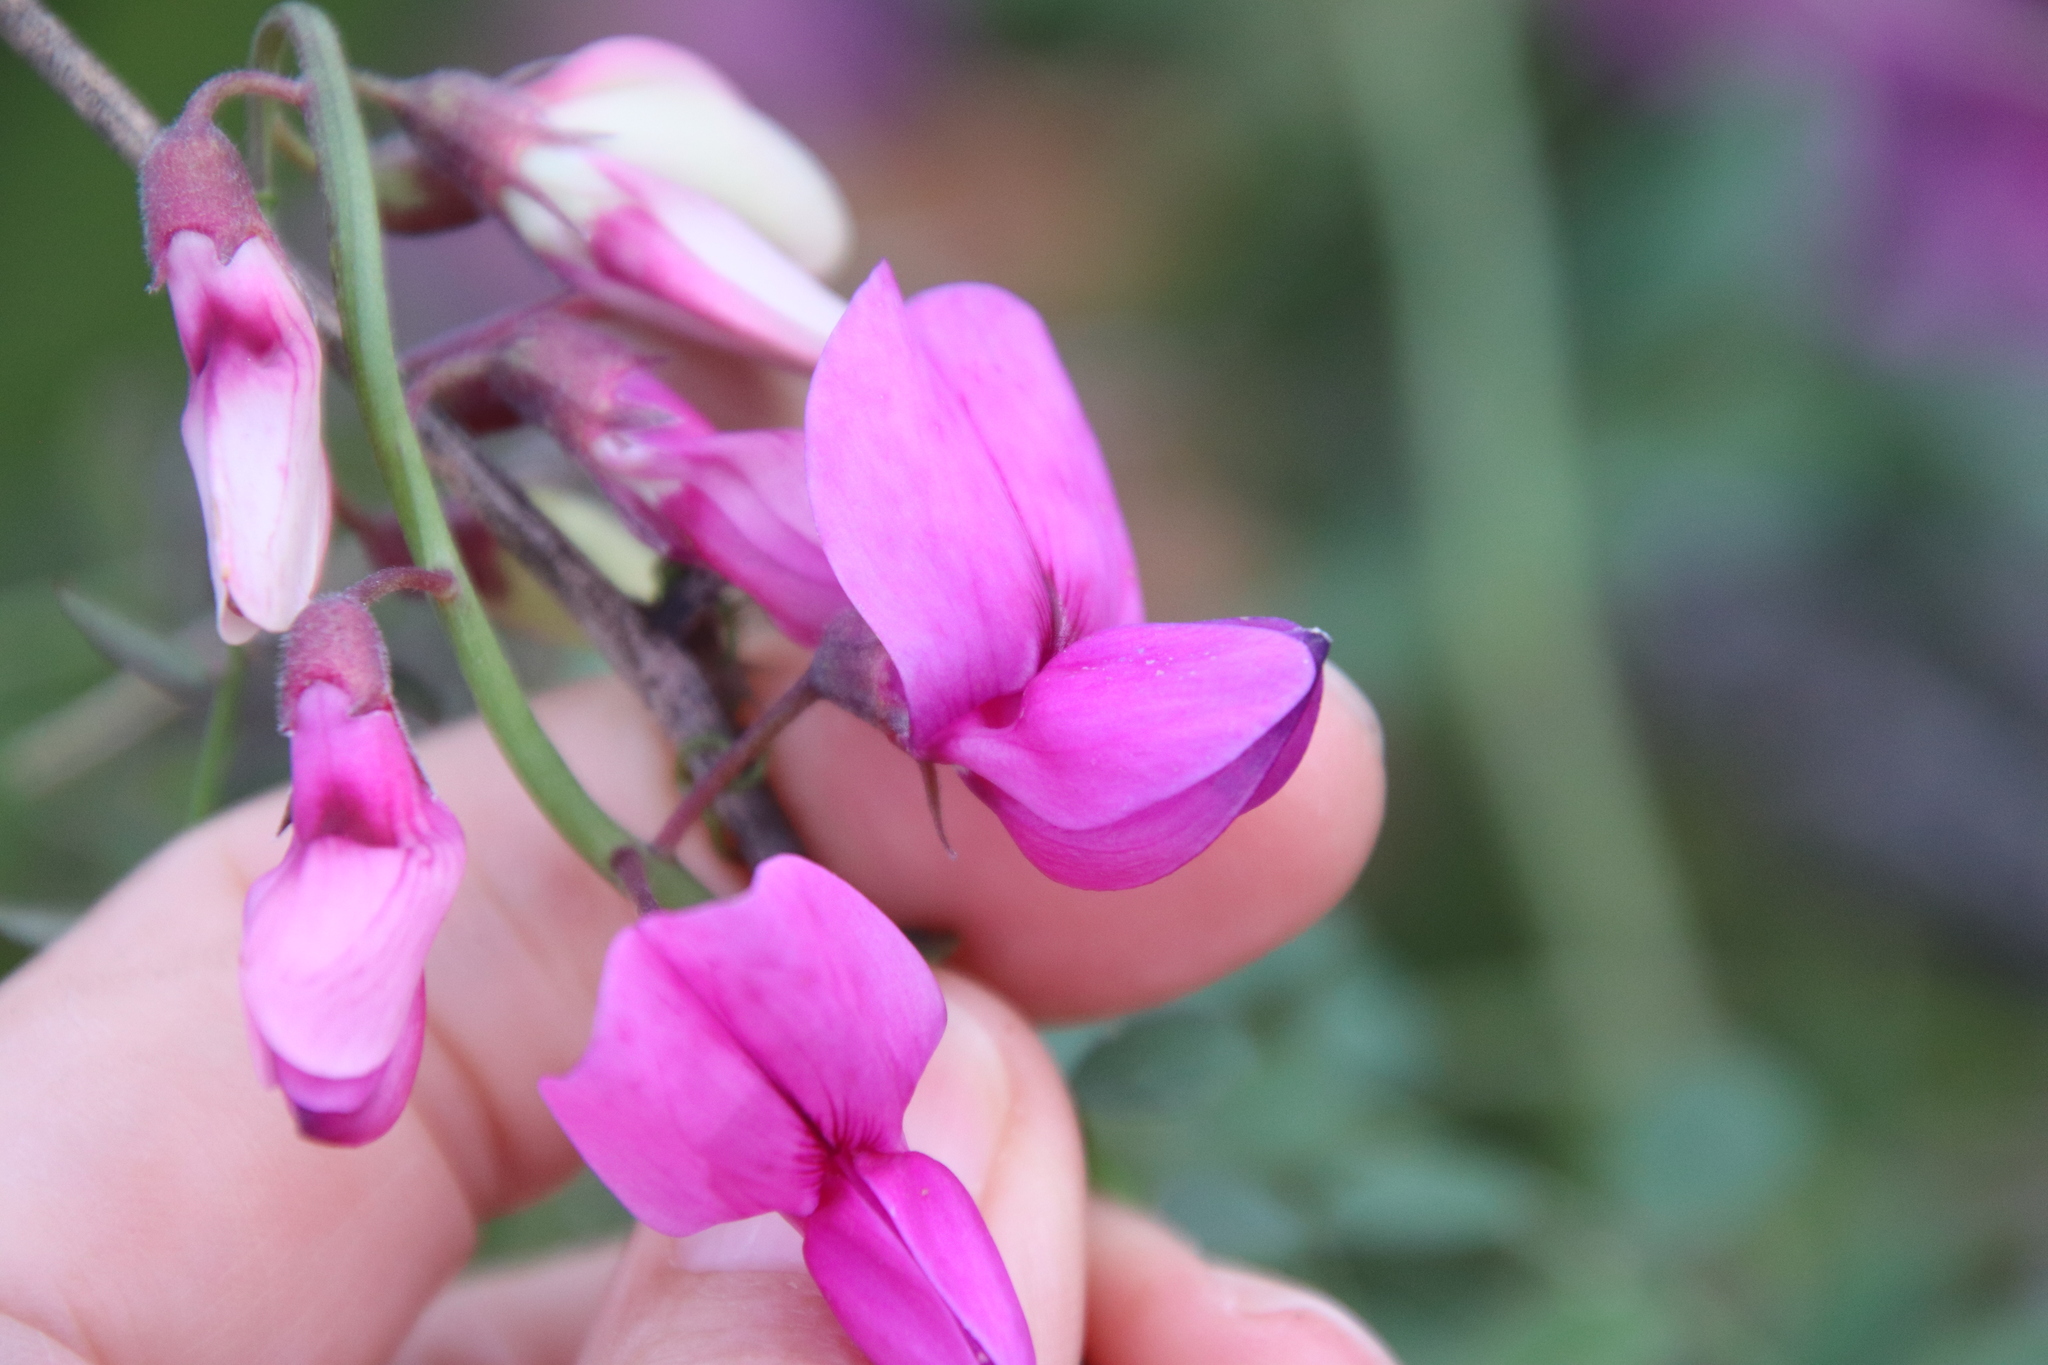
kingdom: Plantae
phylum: Tracheophyta
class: Magnoliopsida
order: Fabales
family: Fabaceae
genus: Lathyrus
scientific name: Lathyrus vestitus
